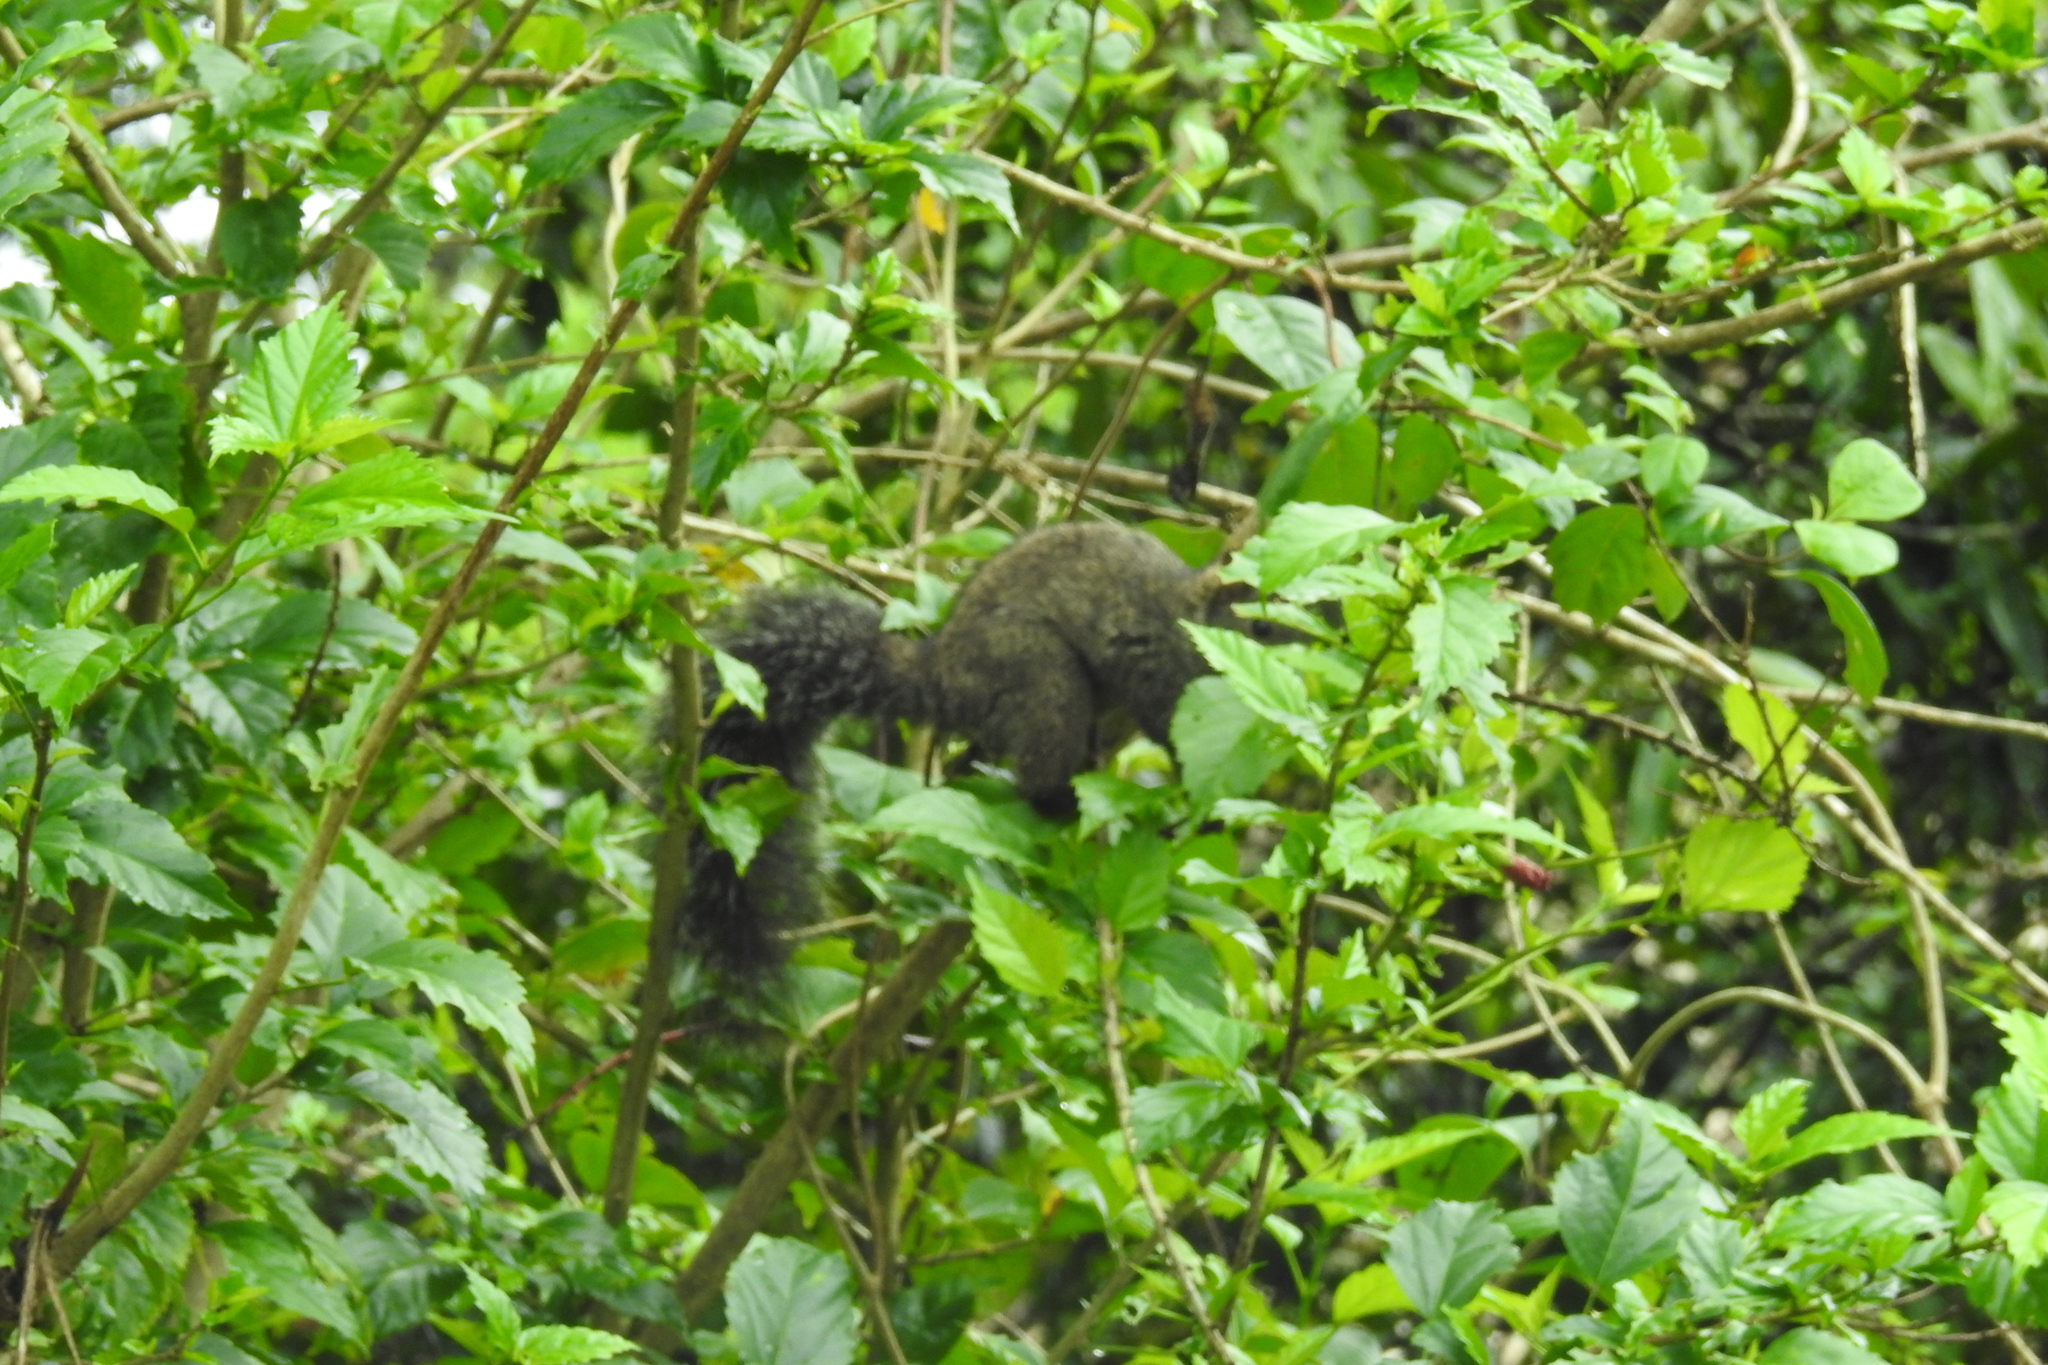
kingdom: Animalia
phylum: Chordata
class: Mammalia
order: Rodentia
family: Sciuridae
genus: Sciurus
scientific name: Sciurus yucatanensis
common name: Yucatan squirrel
